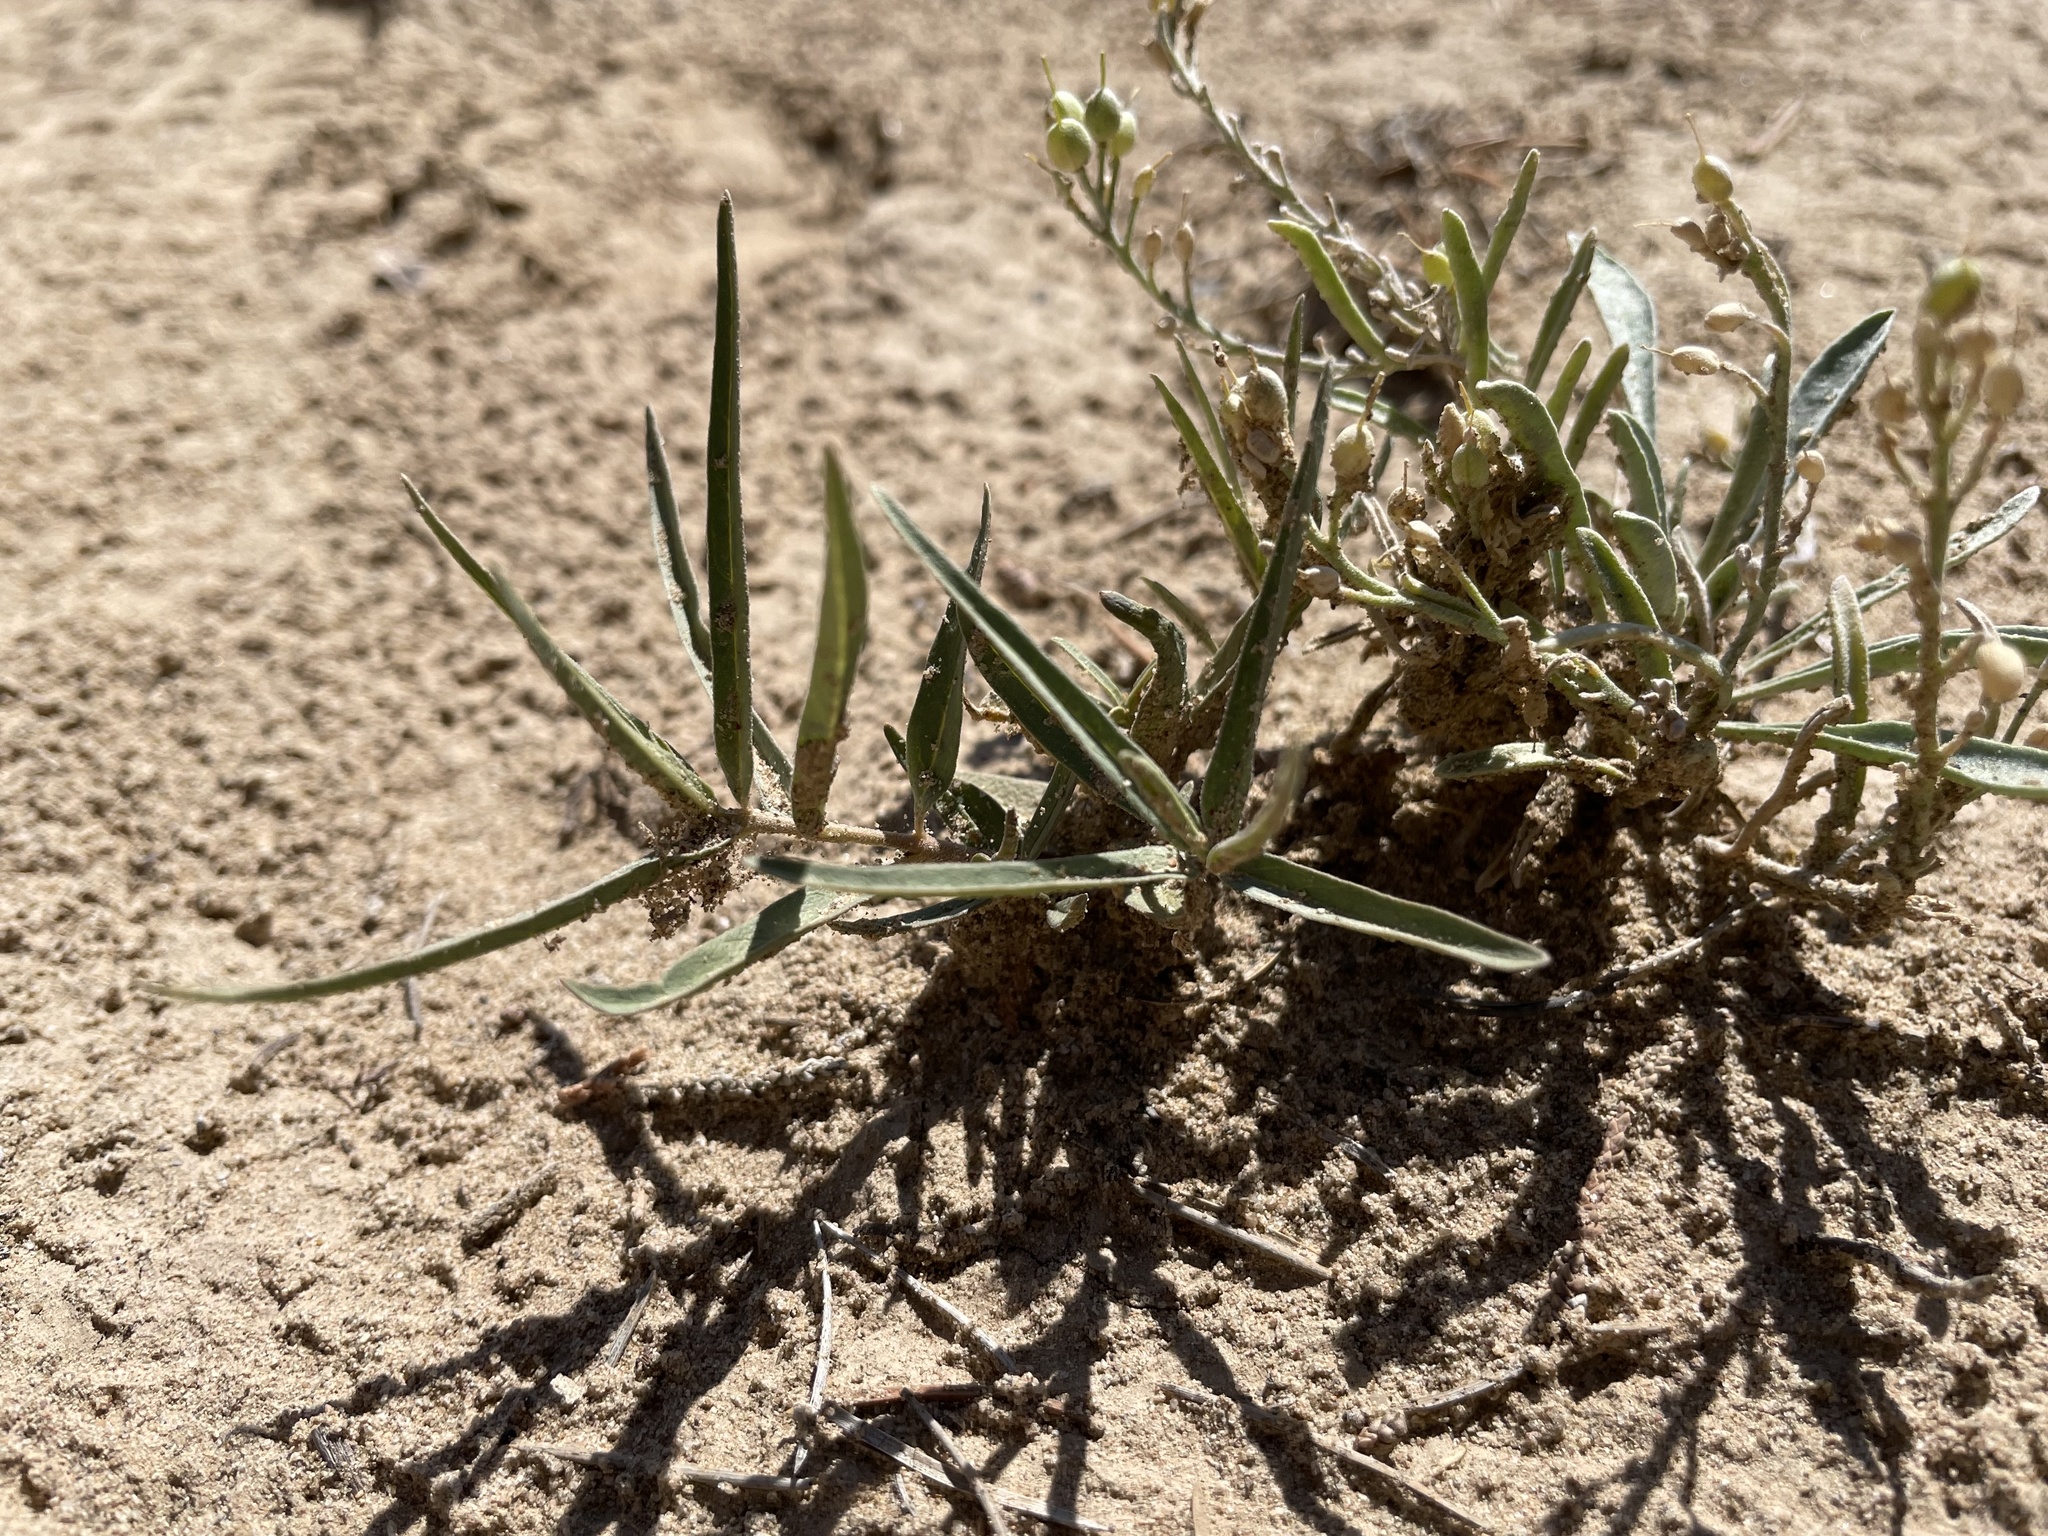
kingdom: Plantae
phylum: Tracheophyta
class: Magnoliopsida
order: Caryophyllales
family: Nyctaginaceae
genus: Mirabilis
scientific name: Mirabilis linearis
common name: Linear-leaved four-o'clock
